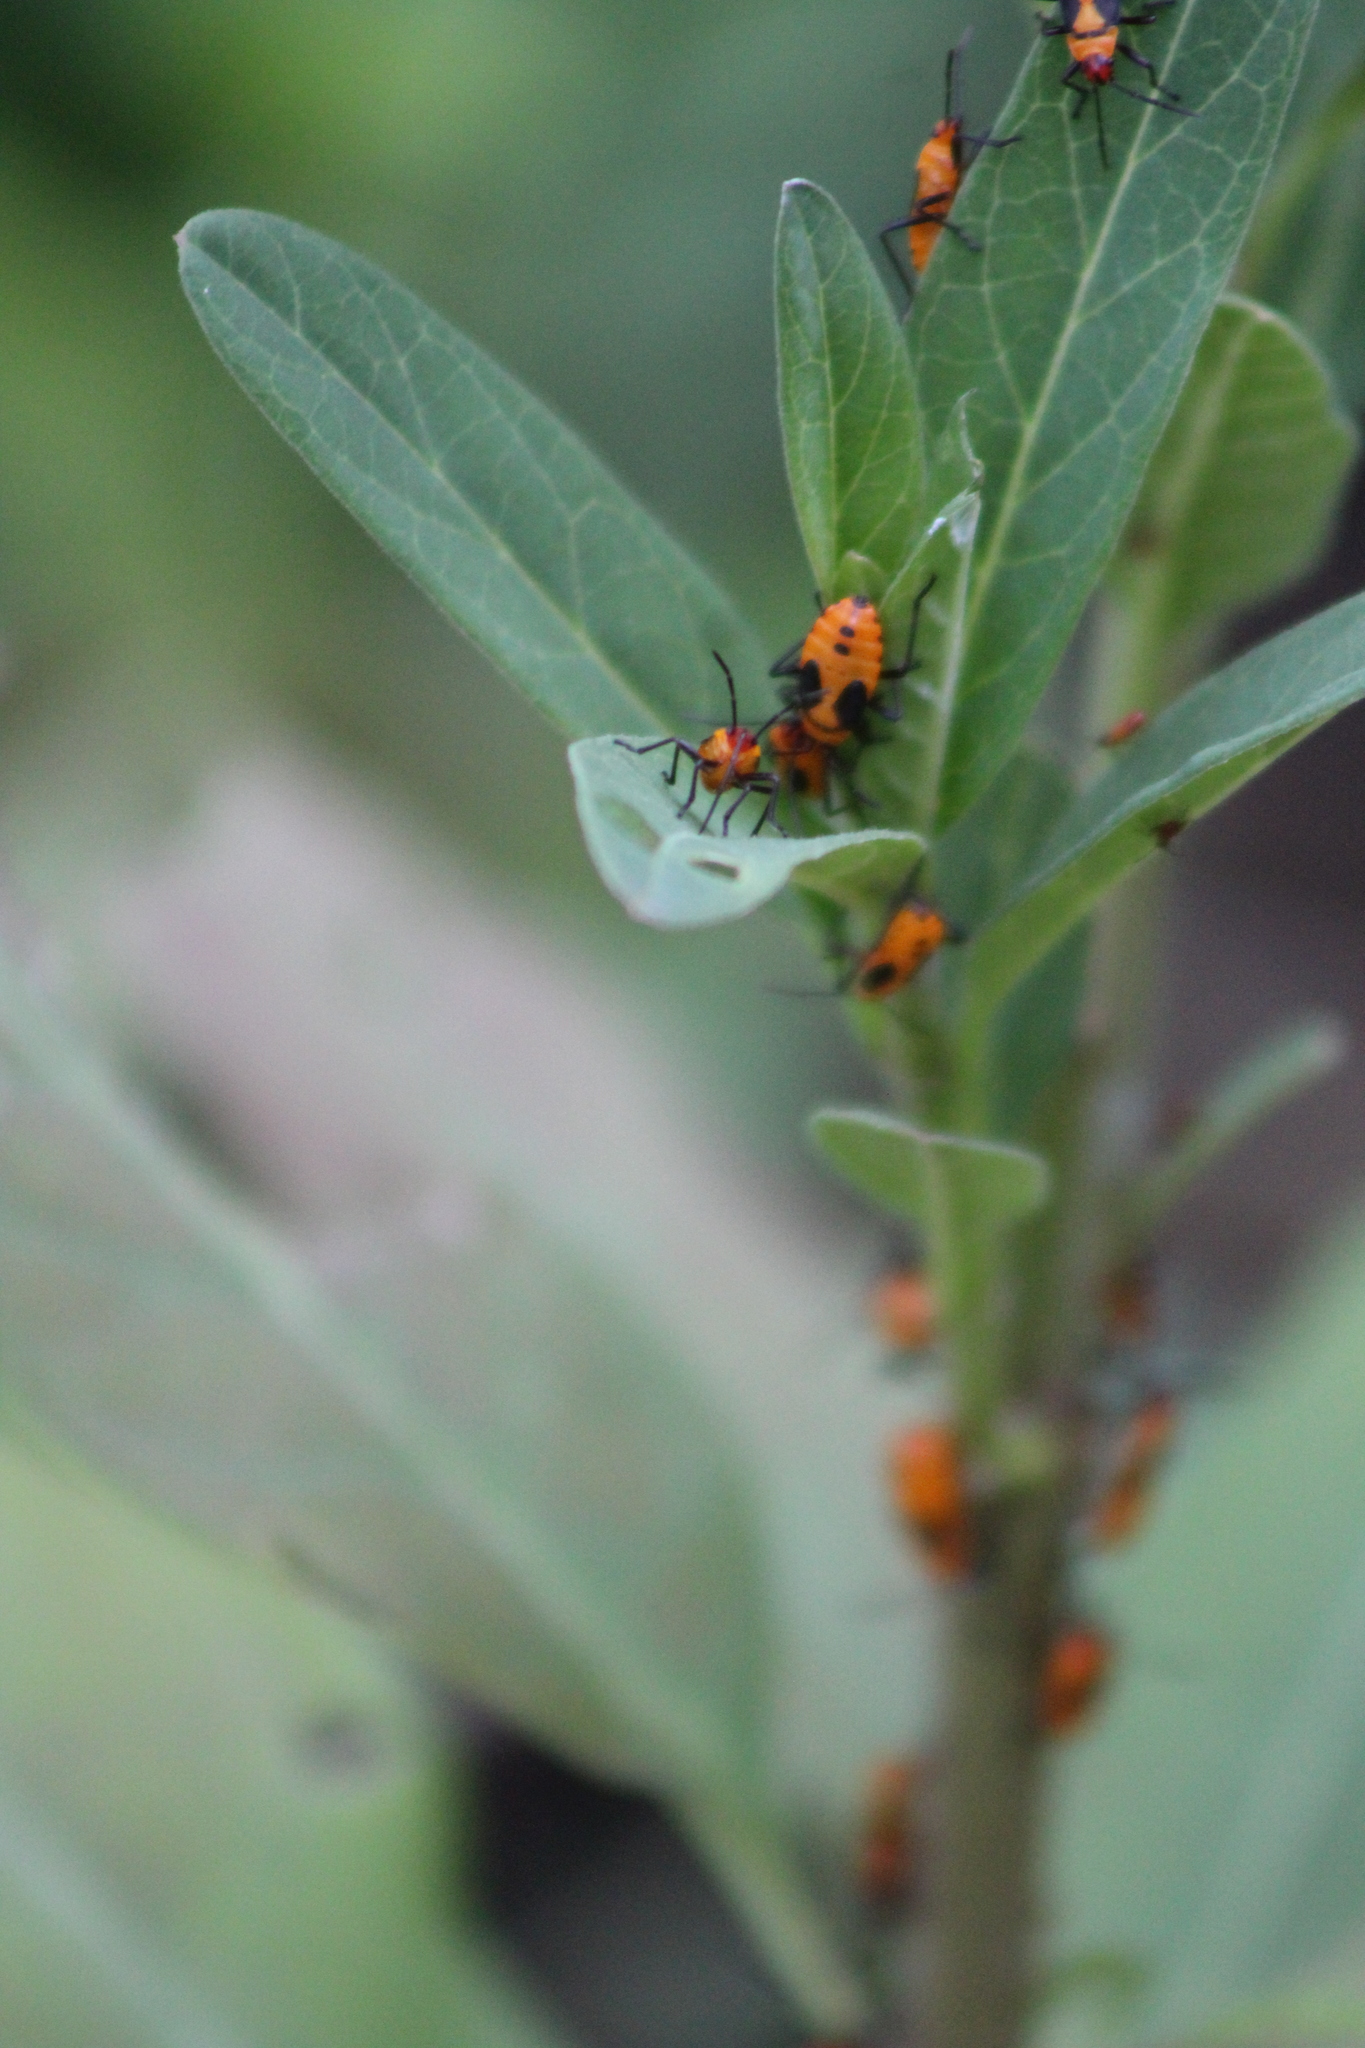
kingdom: Animalia
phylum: Arthropoda
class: Insecta
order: Hemiptera
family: Lygaeidae
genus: Oncopeltus
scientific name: Oncopeltus fasciatus
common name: Large milkweed bug
